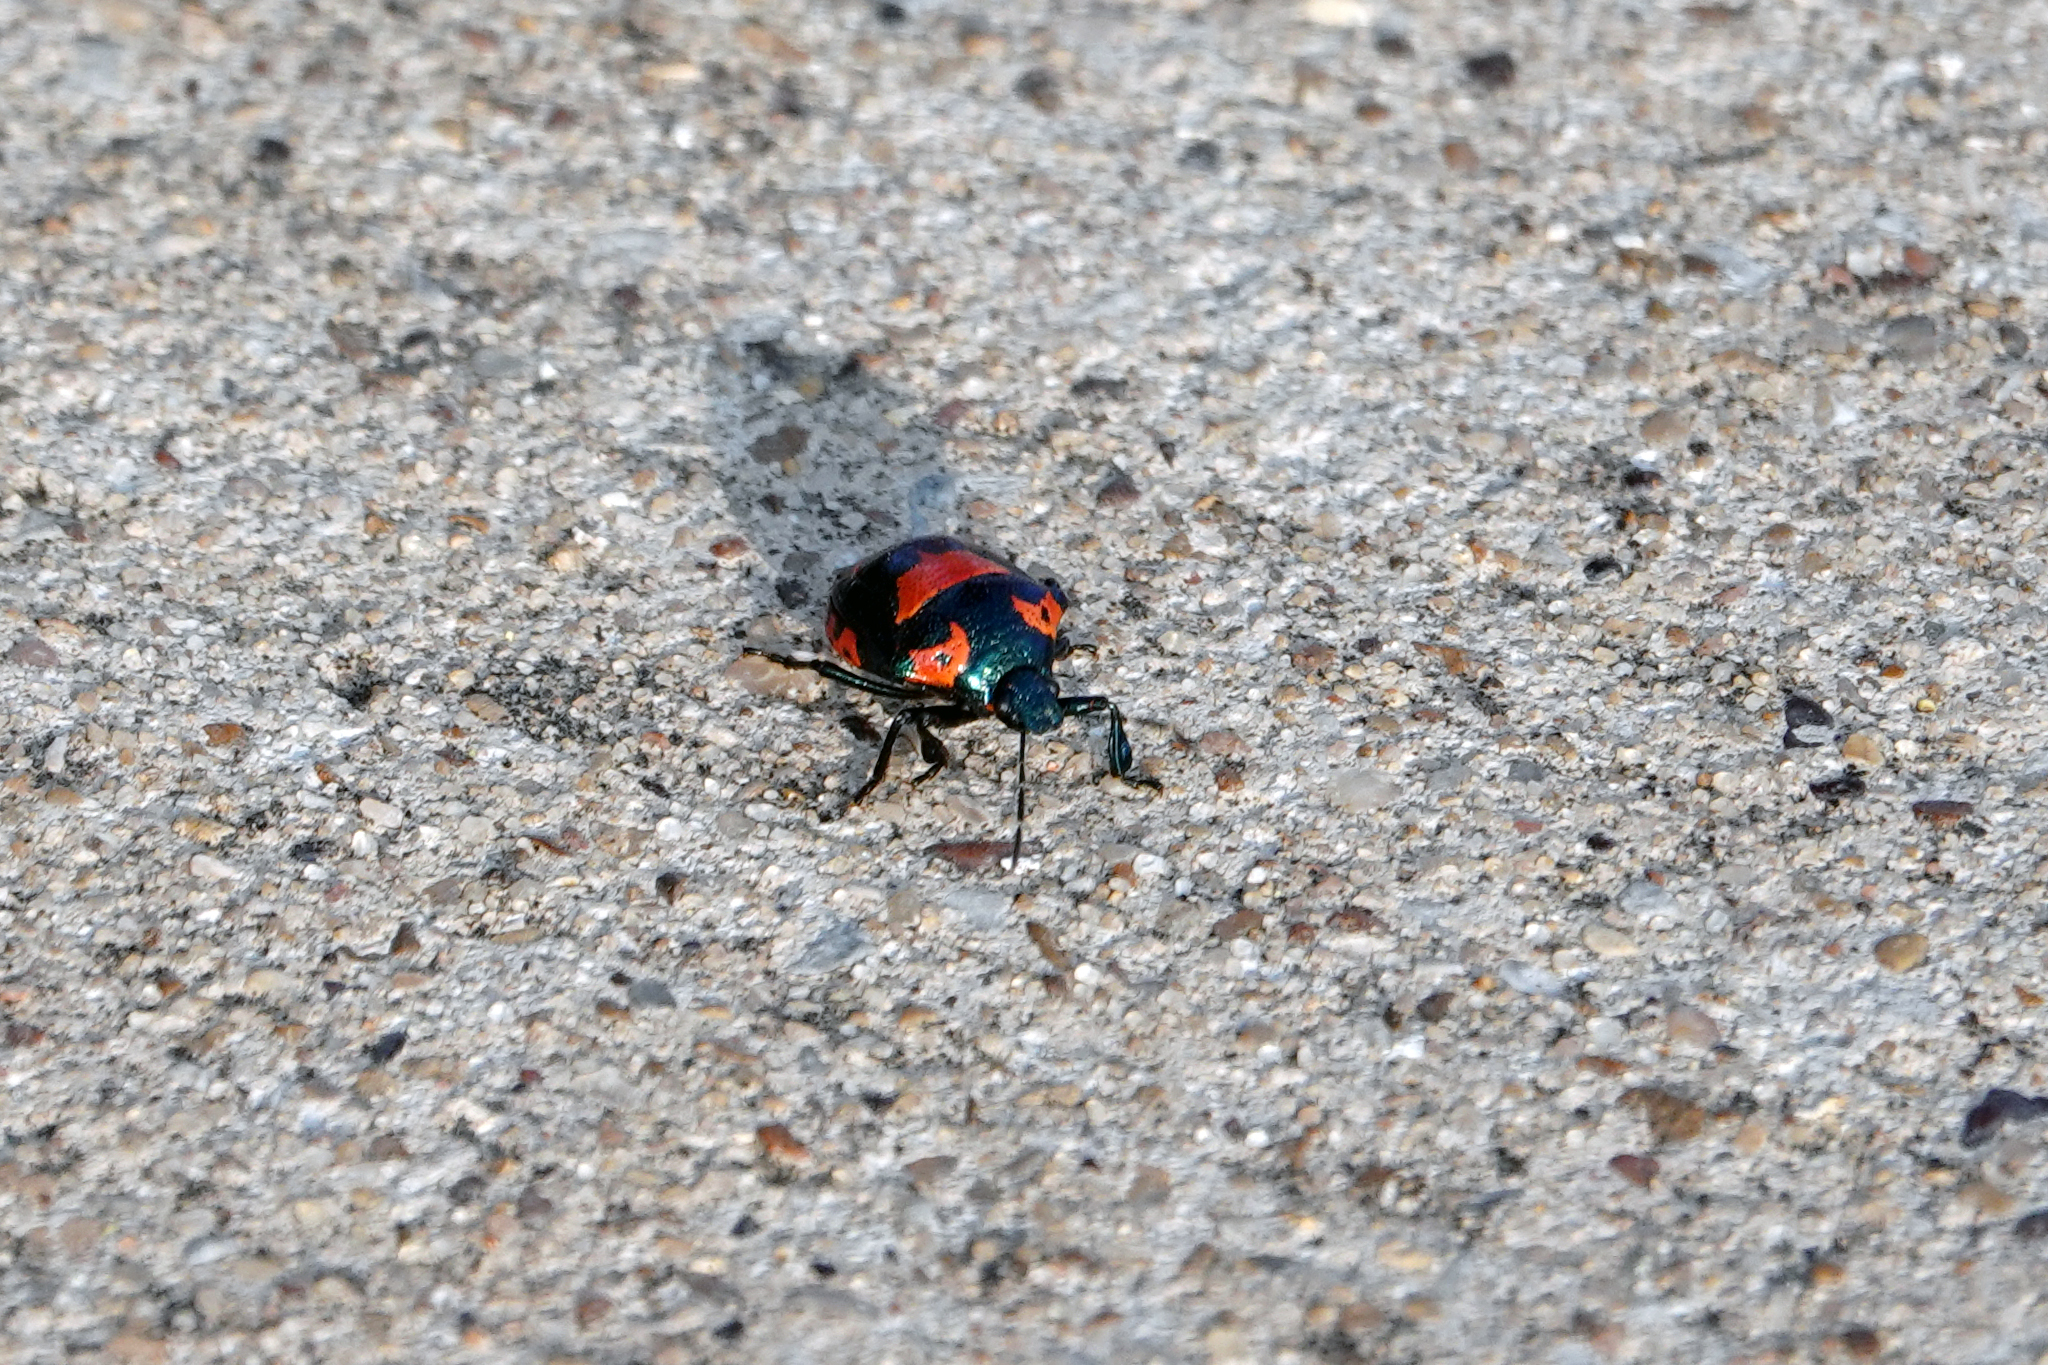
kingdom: Animalia
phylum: Arthropoda
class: Insecta
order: Hemiptera
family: Pentatomidae
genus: Stiretrus
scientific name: Stiretrus anchorago
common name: Anchor stink bug
